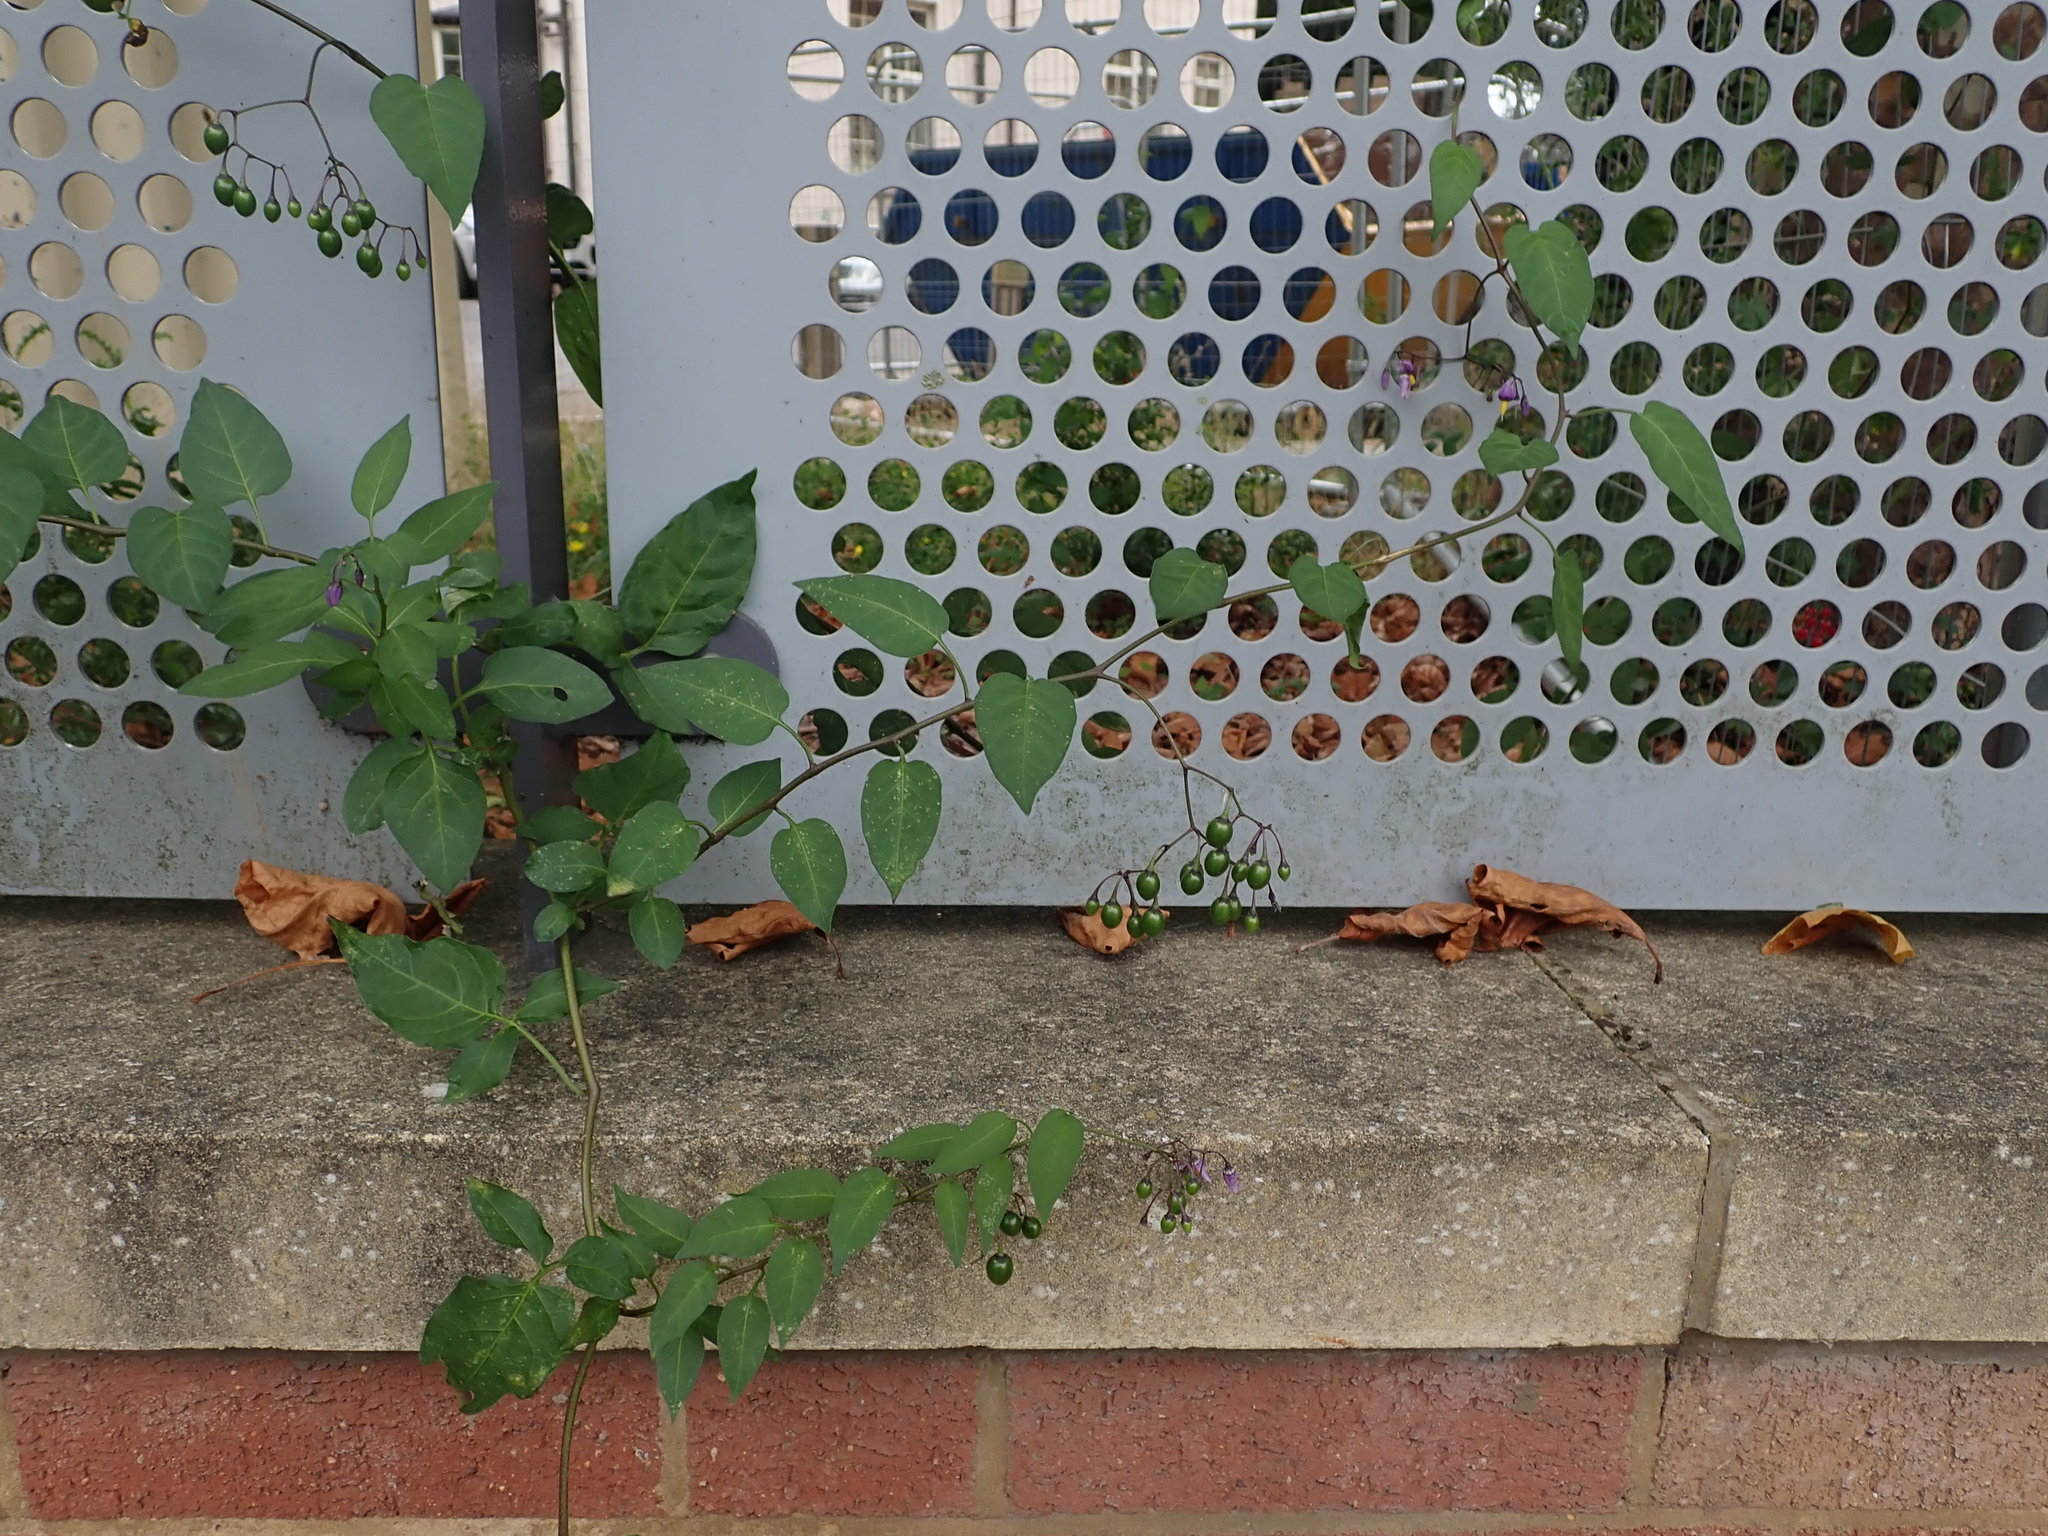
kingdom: Plantae
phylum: Tracheophyta
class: Magnoliopsida
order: Solanales
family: Solanaceae
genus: Solanum
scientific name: Solanum dulcamara
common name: Climbing nightshade
